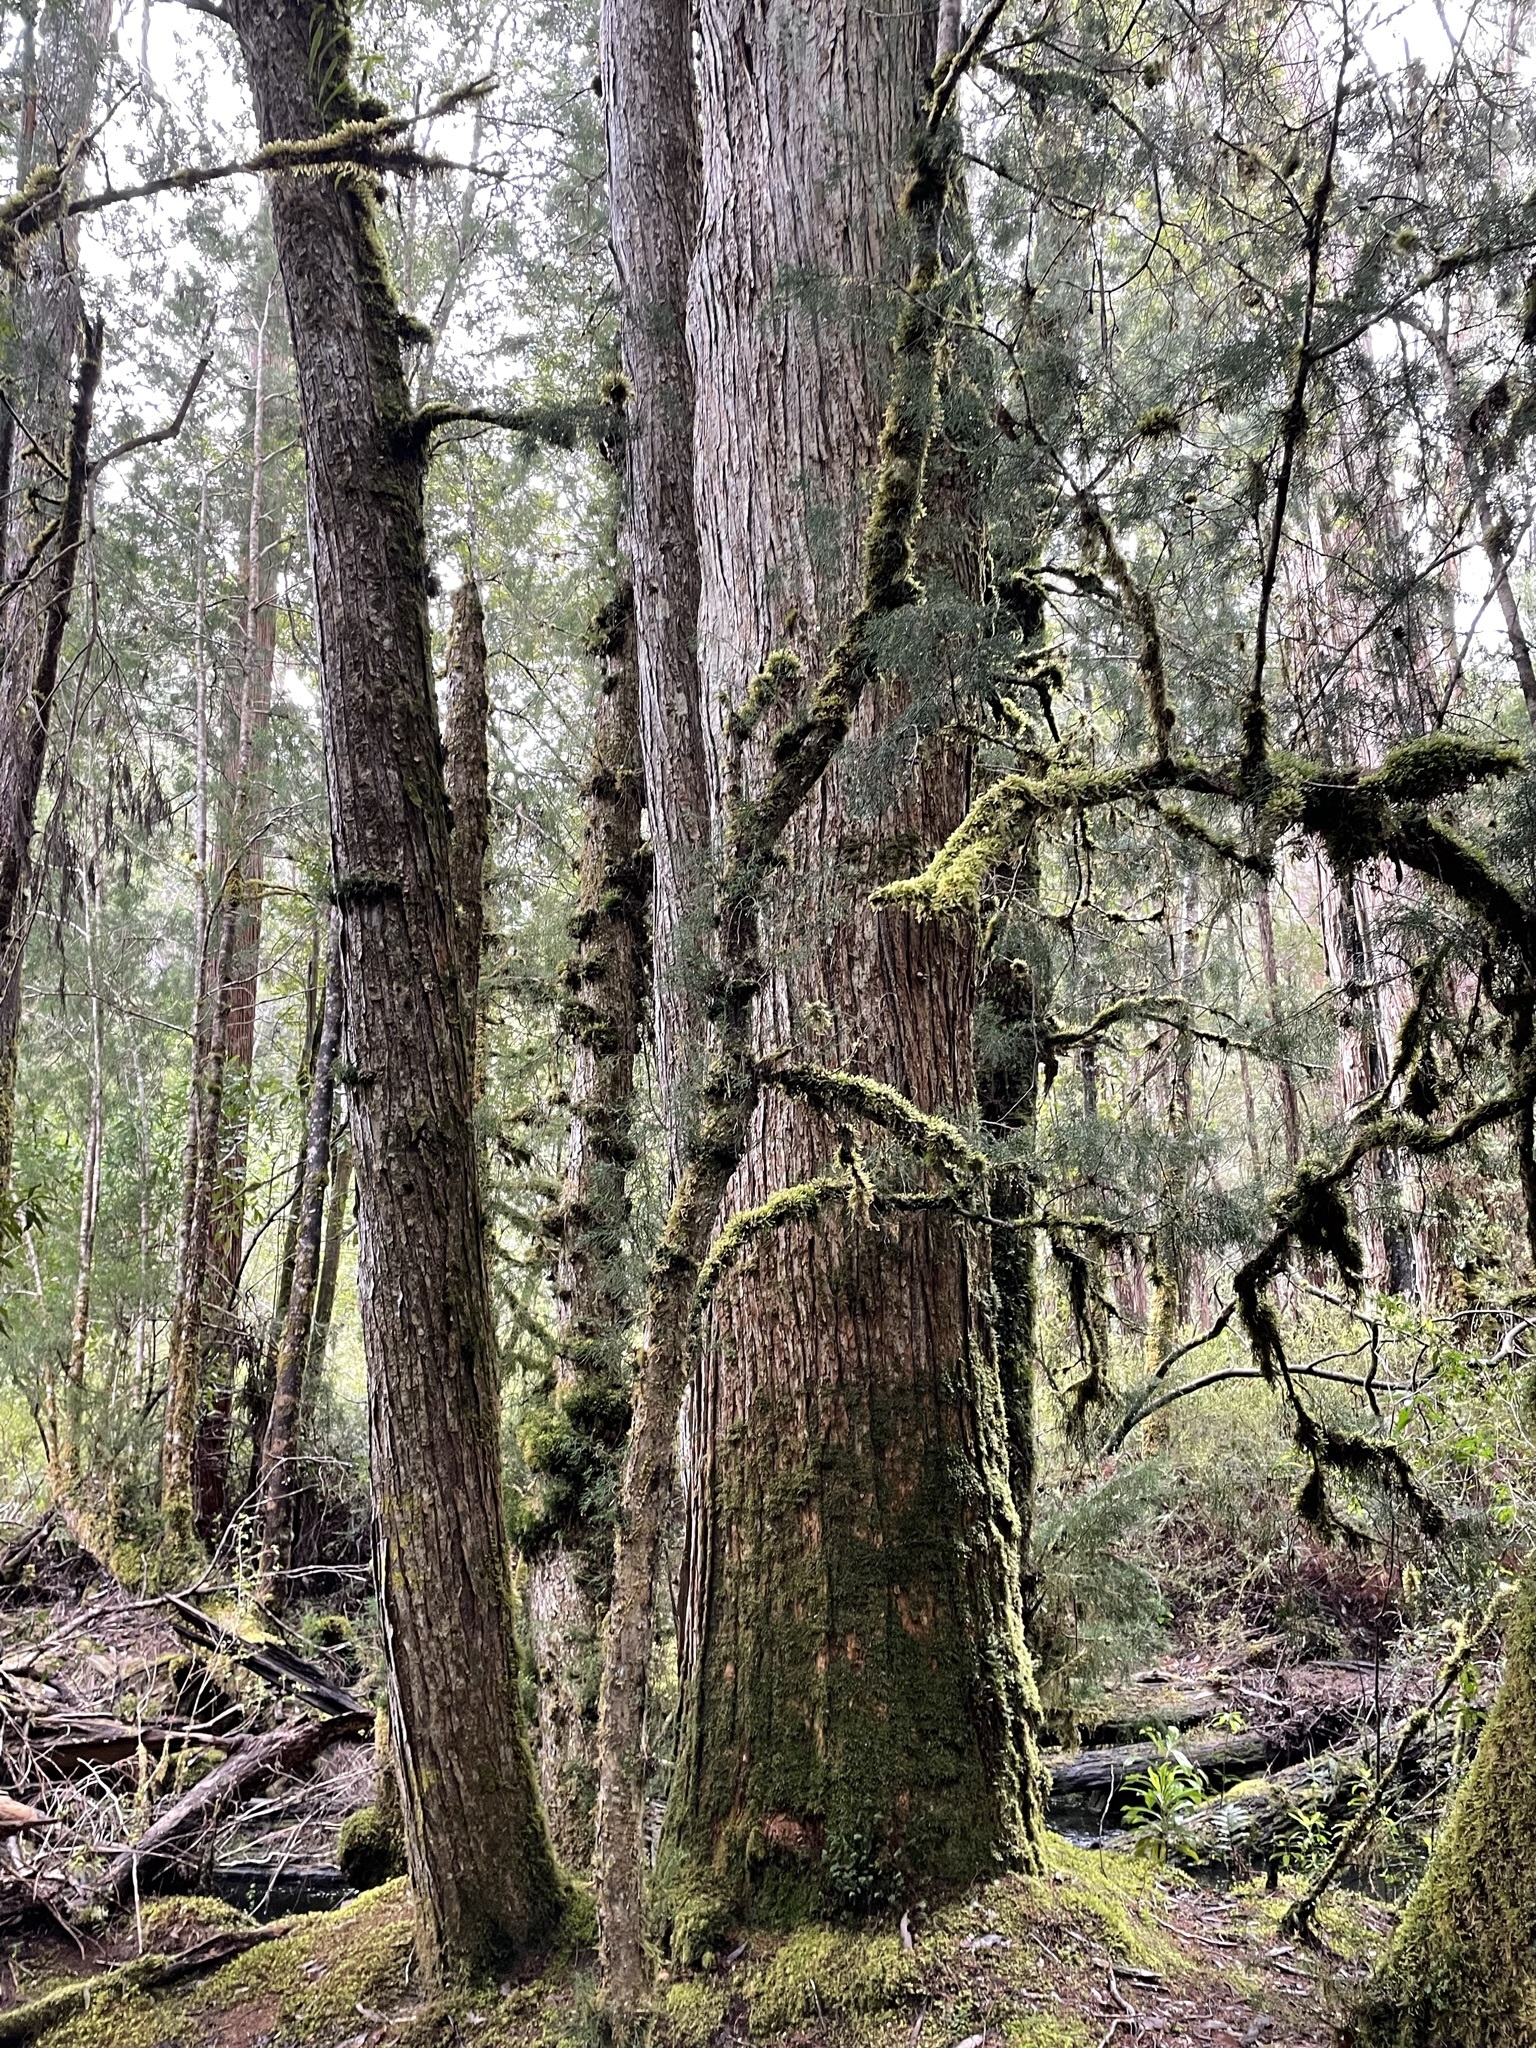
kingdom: Plantae
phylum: Tracheophyta
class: Pinopsida
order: Pinales
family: Podocarpaceae
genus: Lagarostrobos
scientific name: Lagarostrobos franklinii
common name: Huon pine
